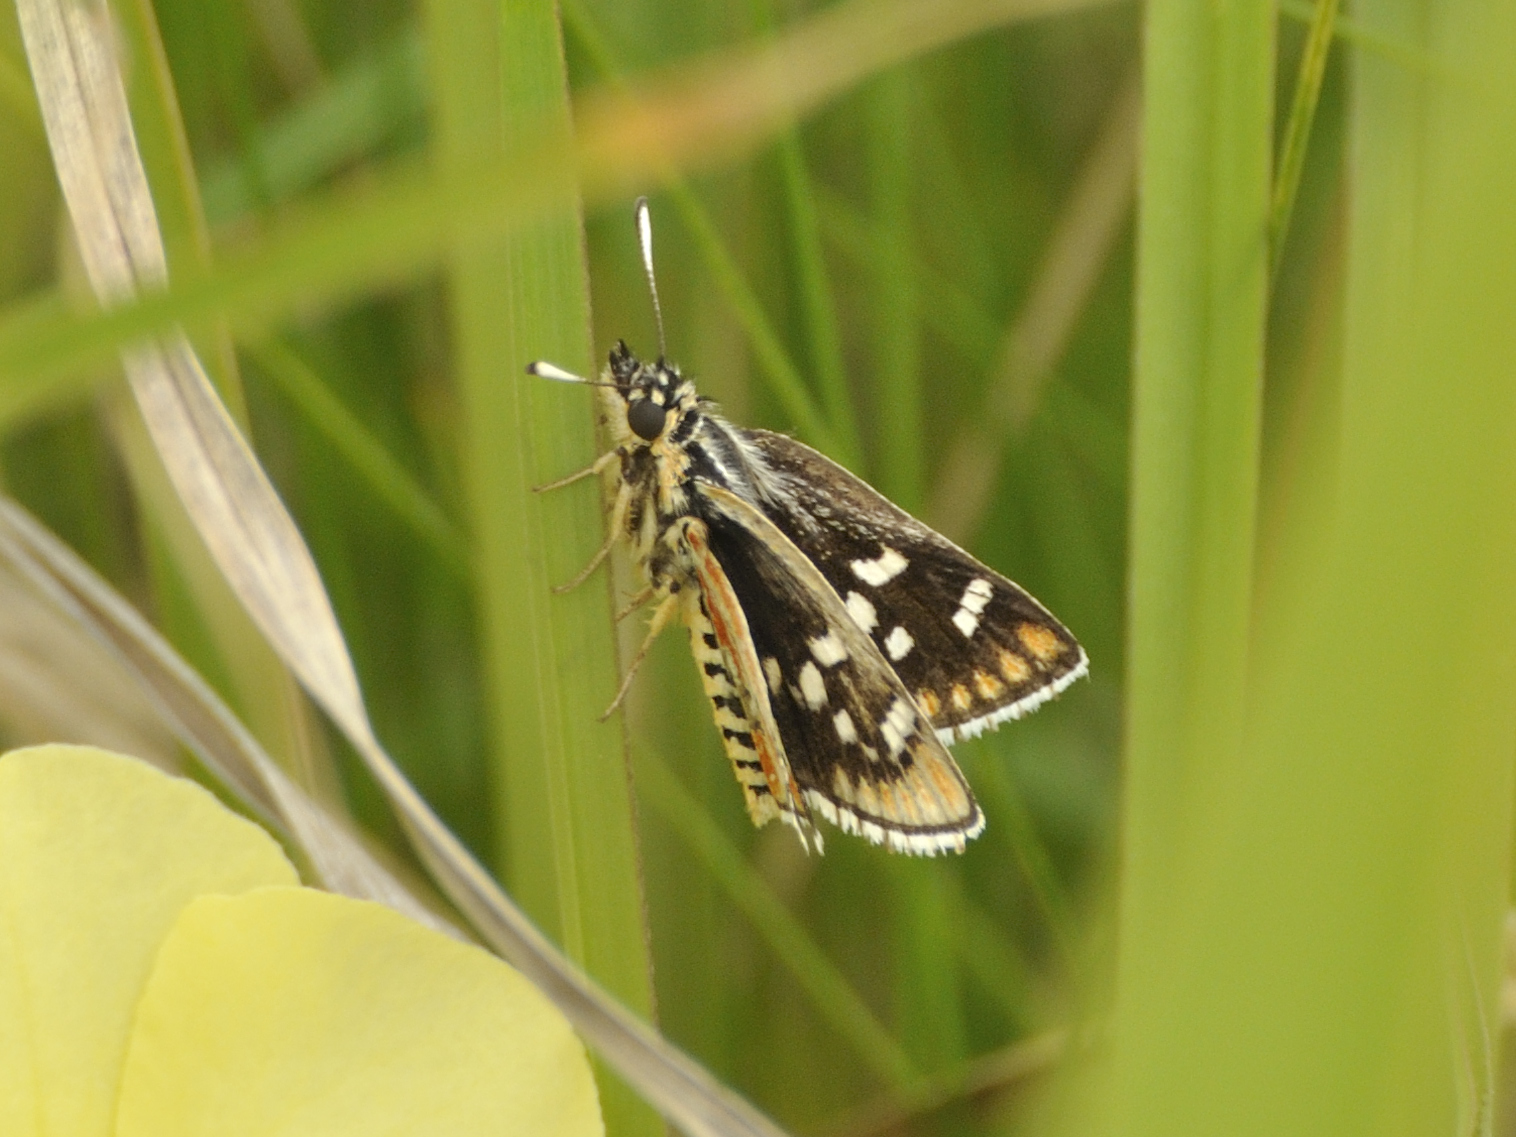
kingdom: Animalia
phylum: Arthropoda
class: Insecta
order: Lepidoptera
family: Hesperiidae
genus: Nervia
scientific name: Nervia
